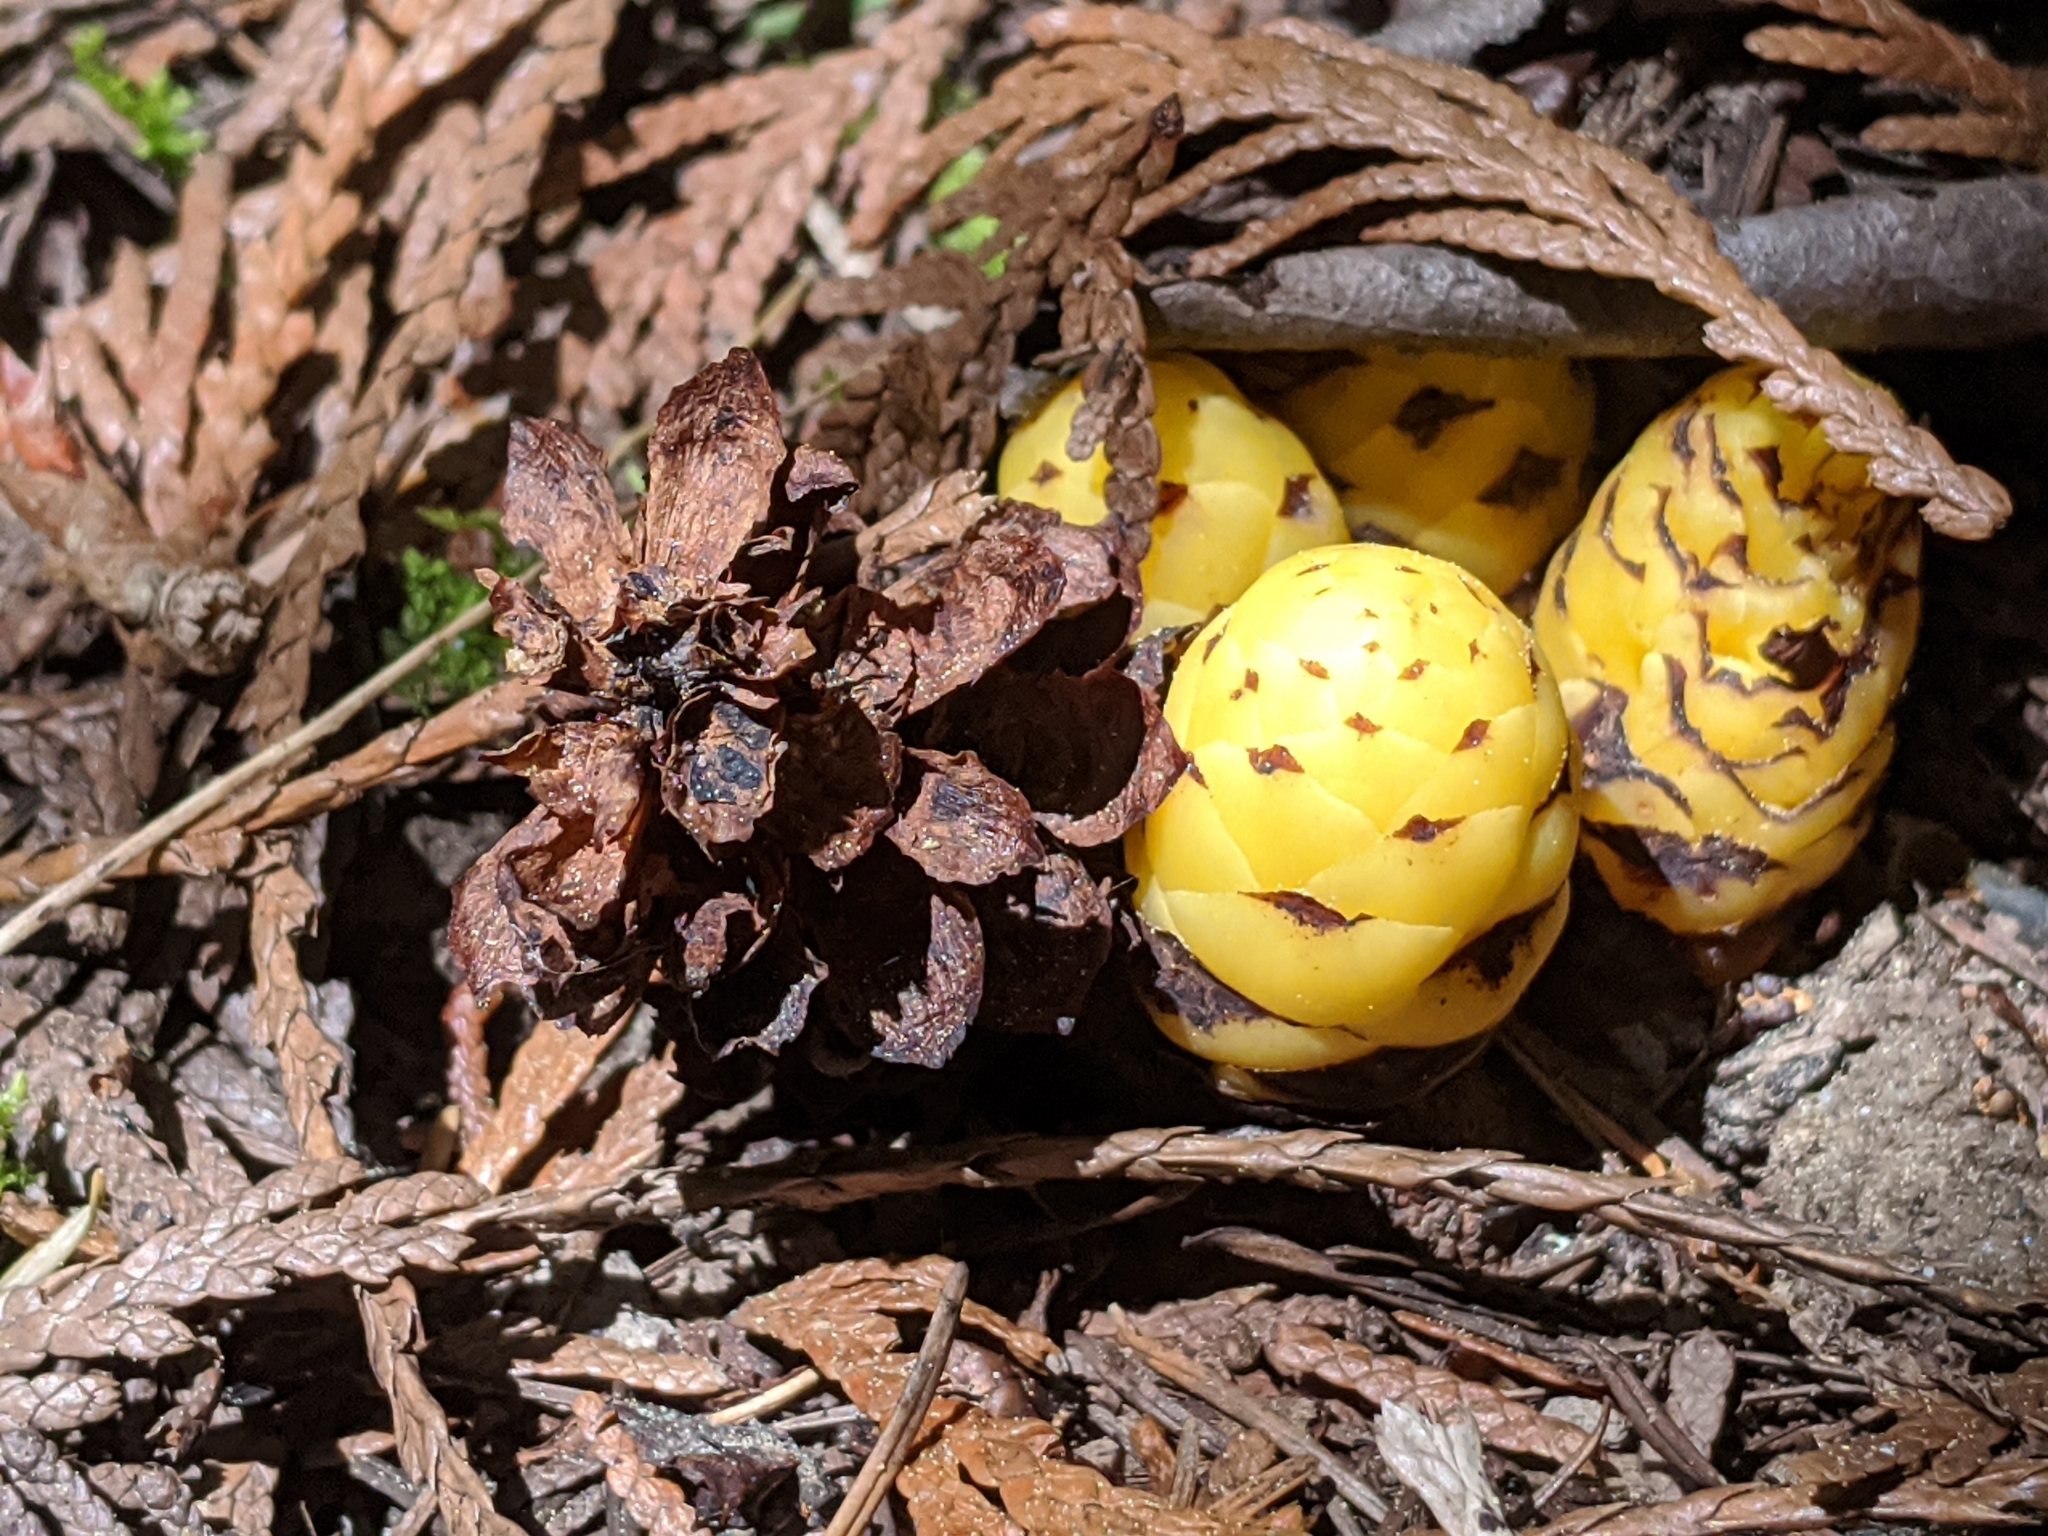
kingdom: Plantae
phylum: Tracheophyta
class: Magnoliopsida
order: Lamiales
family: Orobanchaceae
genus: Kopsiopsis
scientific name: Kopsiopsis hookeri
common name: Hooker's groundcone
